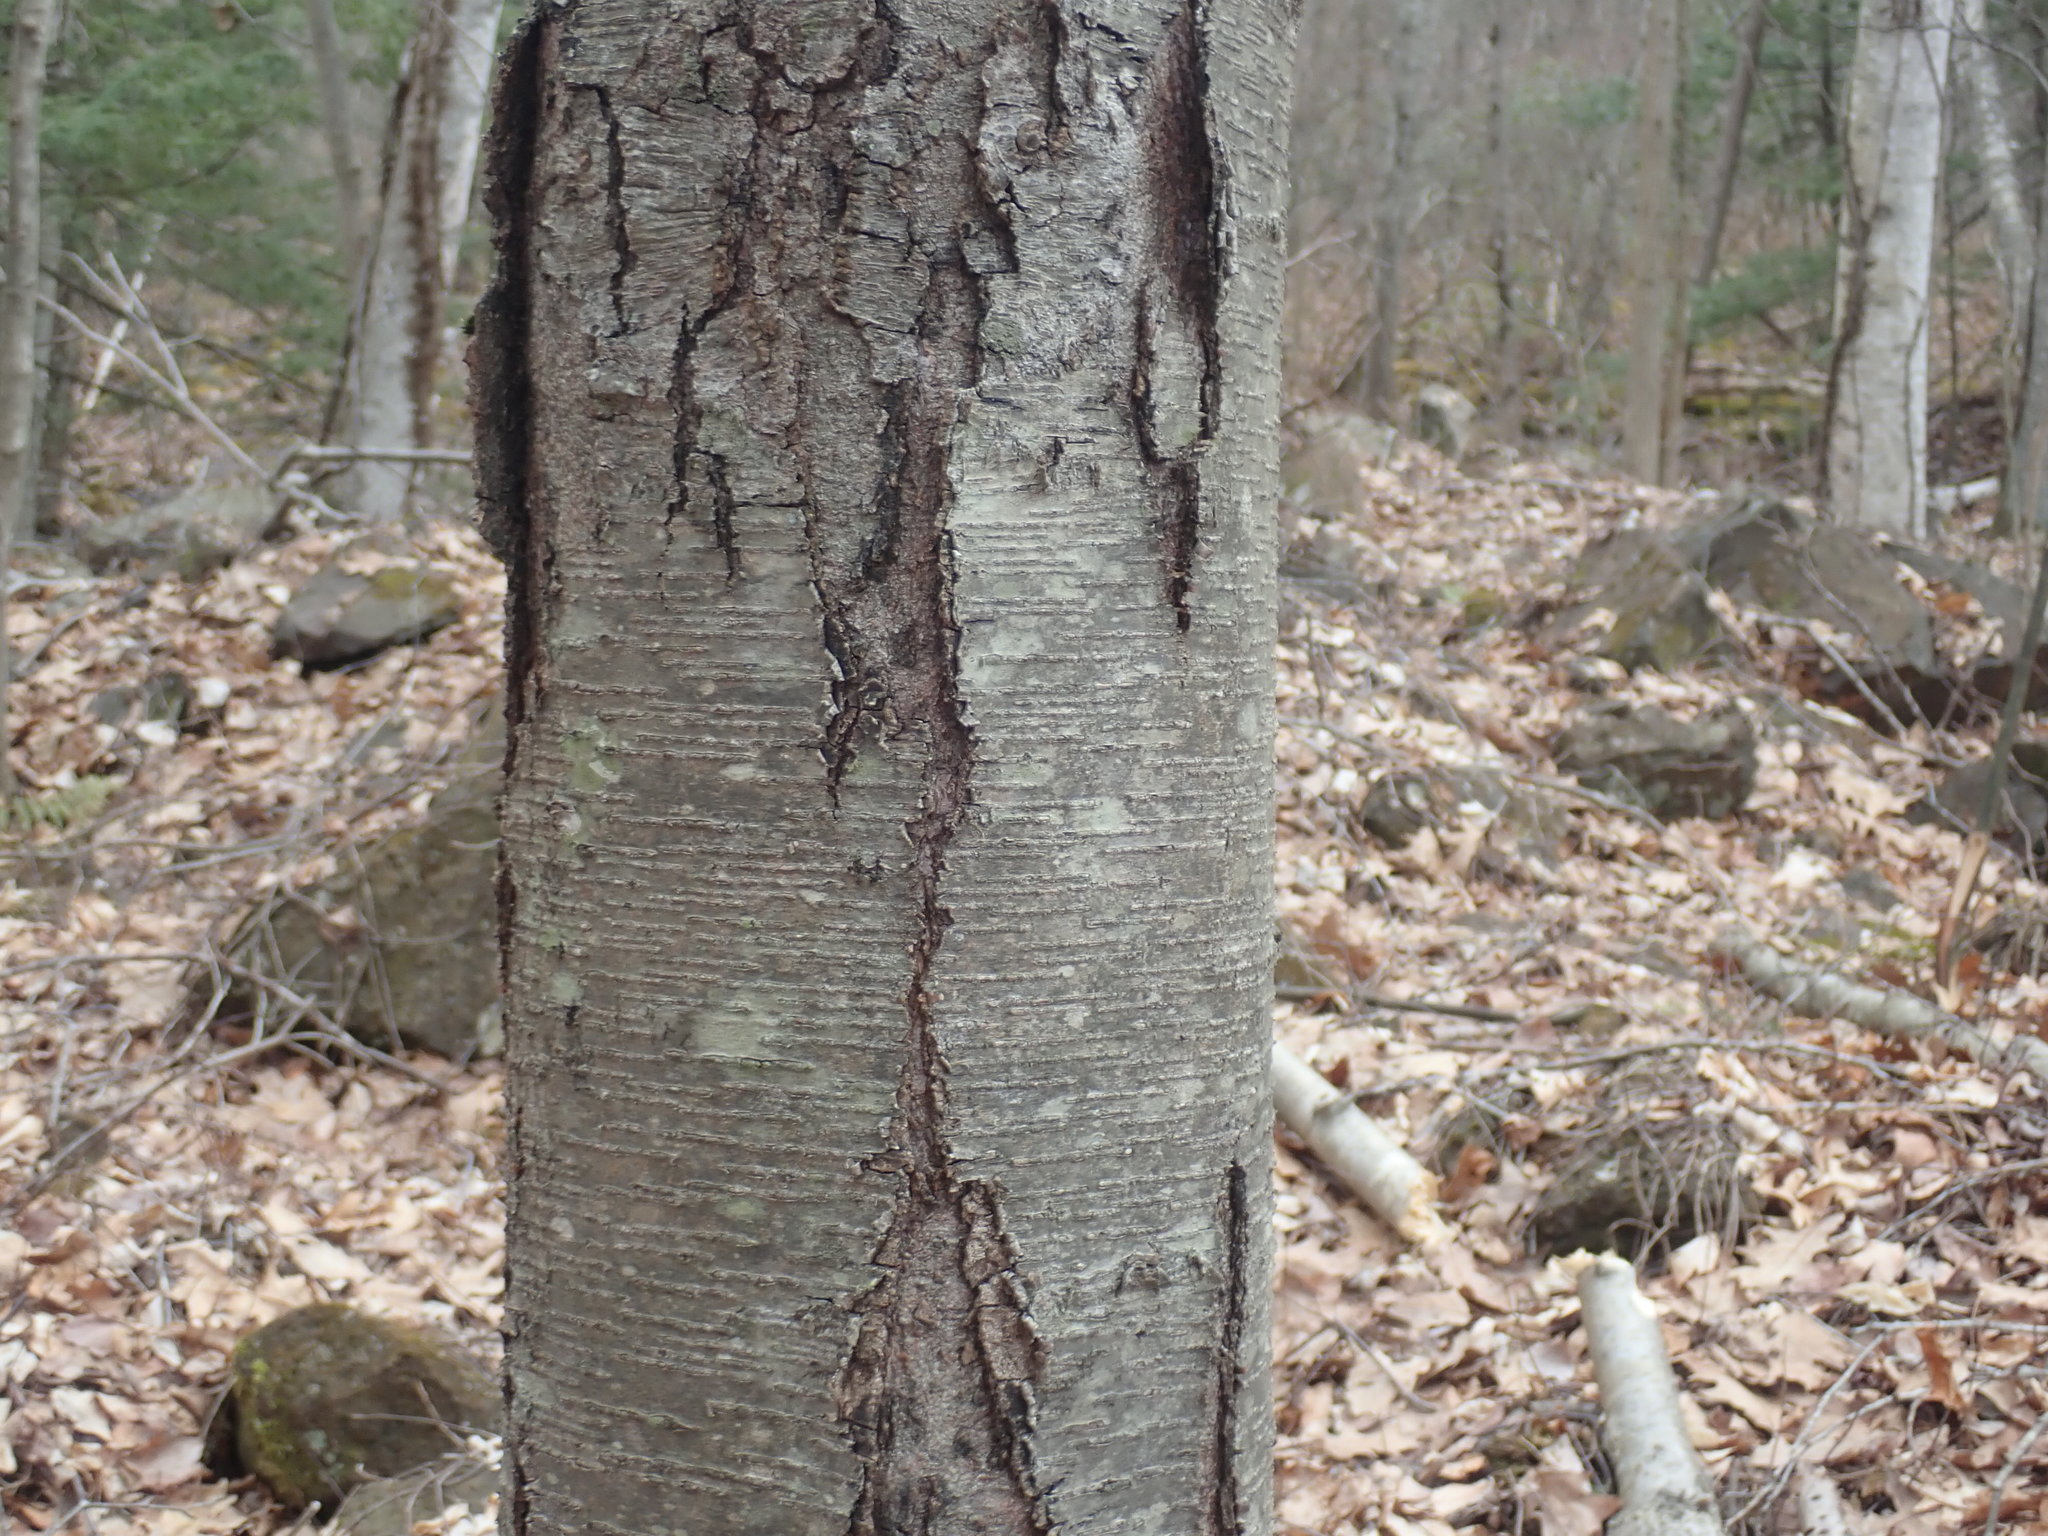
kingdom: Plantae
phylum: Tracheophyta
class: Magnoliopsida
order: Fagales
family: Betulaceae
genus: Betula
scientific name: Betula lenta
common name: Black birch
